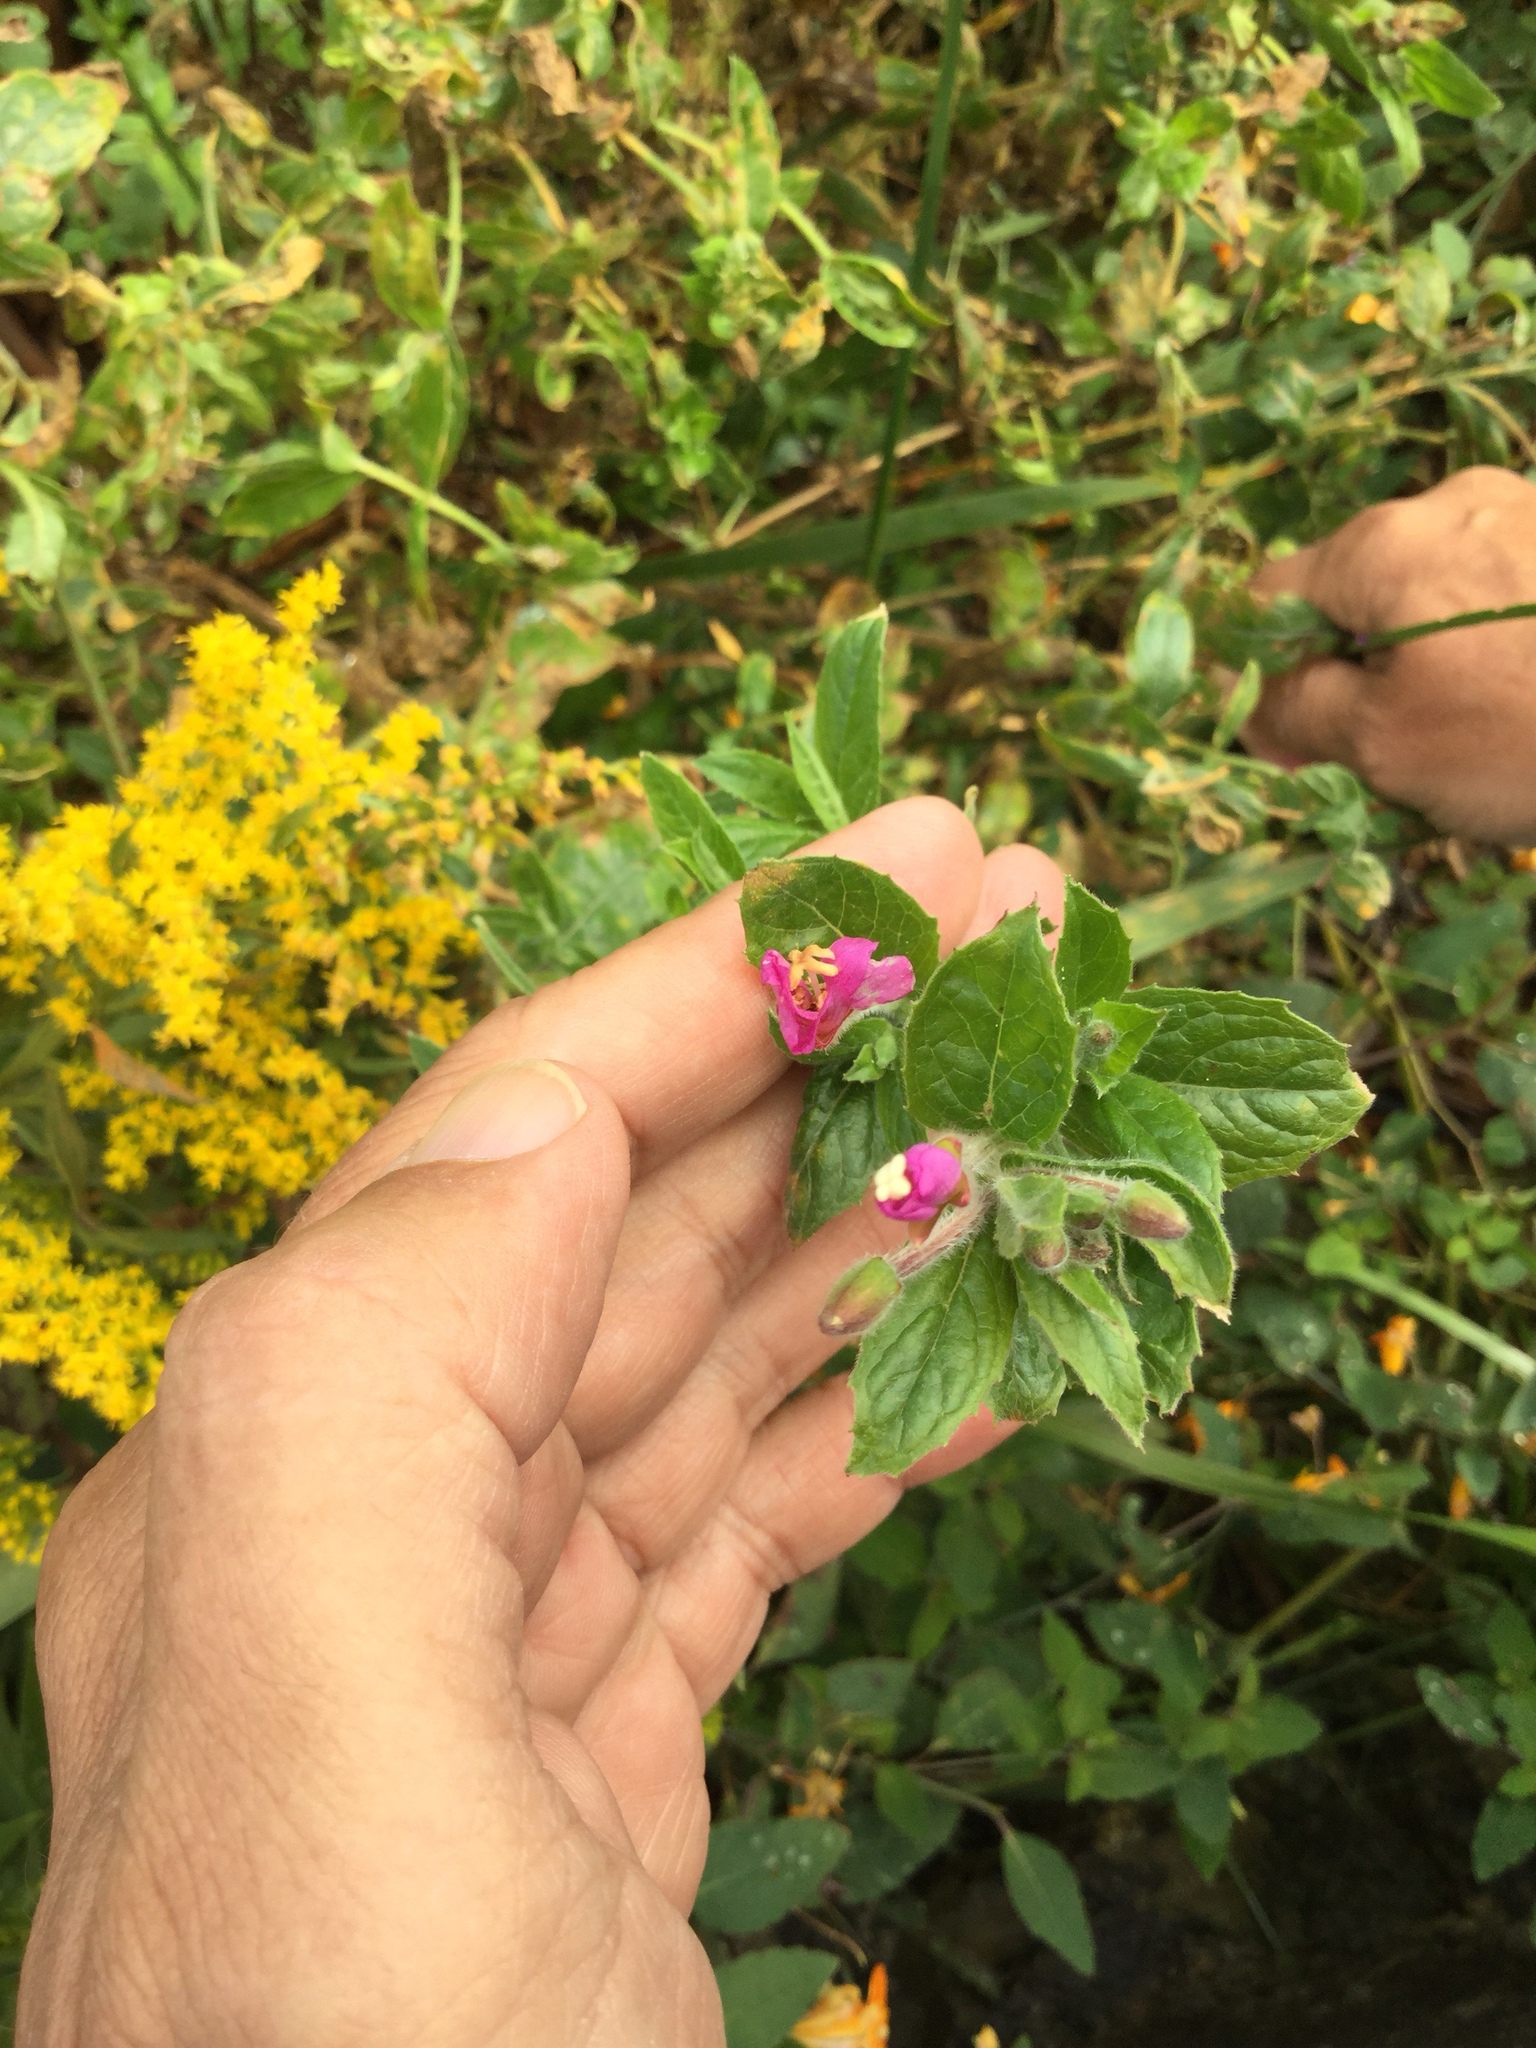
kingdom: Plantae
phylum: Tracheophyta
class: Magnoliopsida
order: Myrtales
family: Onagraceae
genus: Epilobium
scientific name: Epilobium hirsutum
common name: Great willowherb
